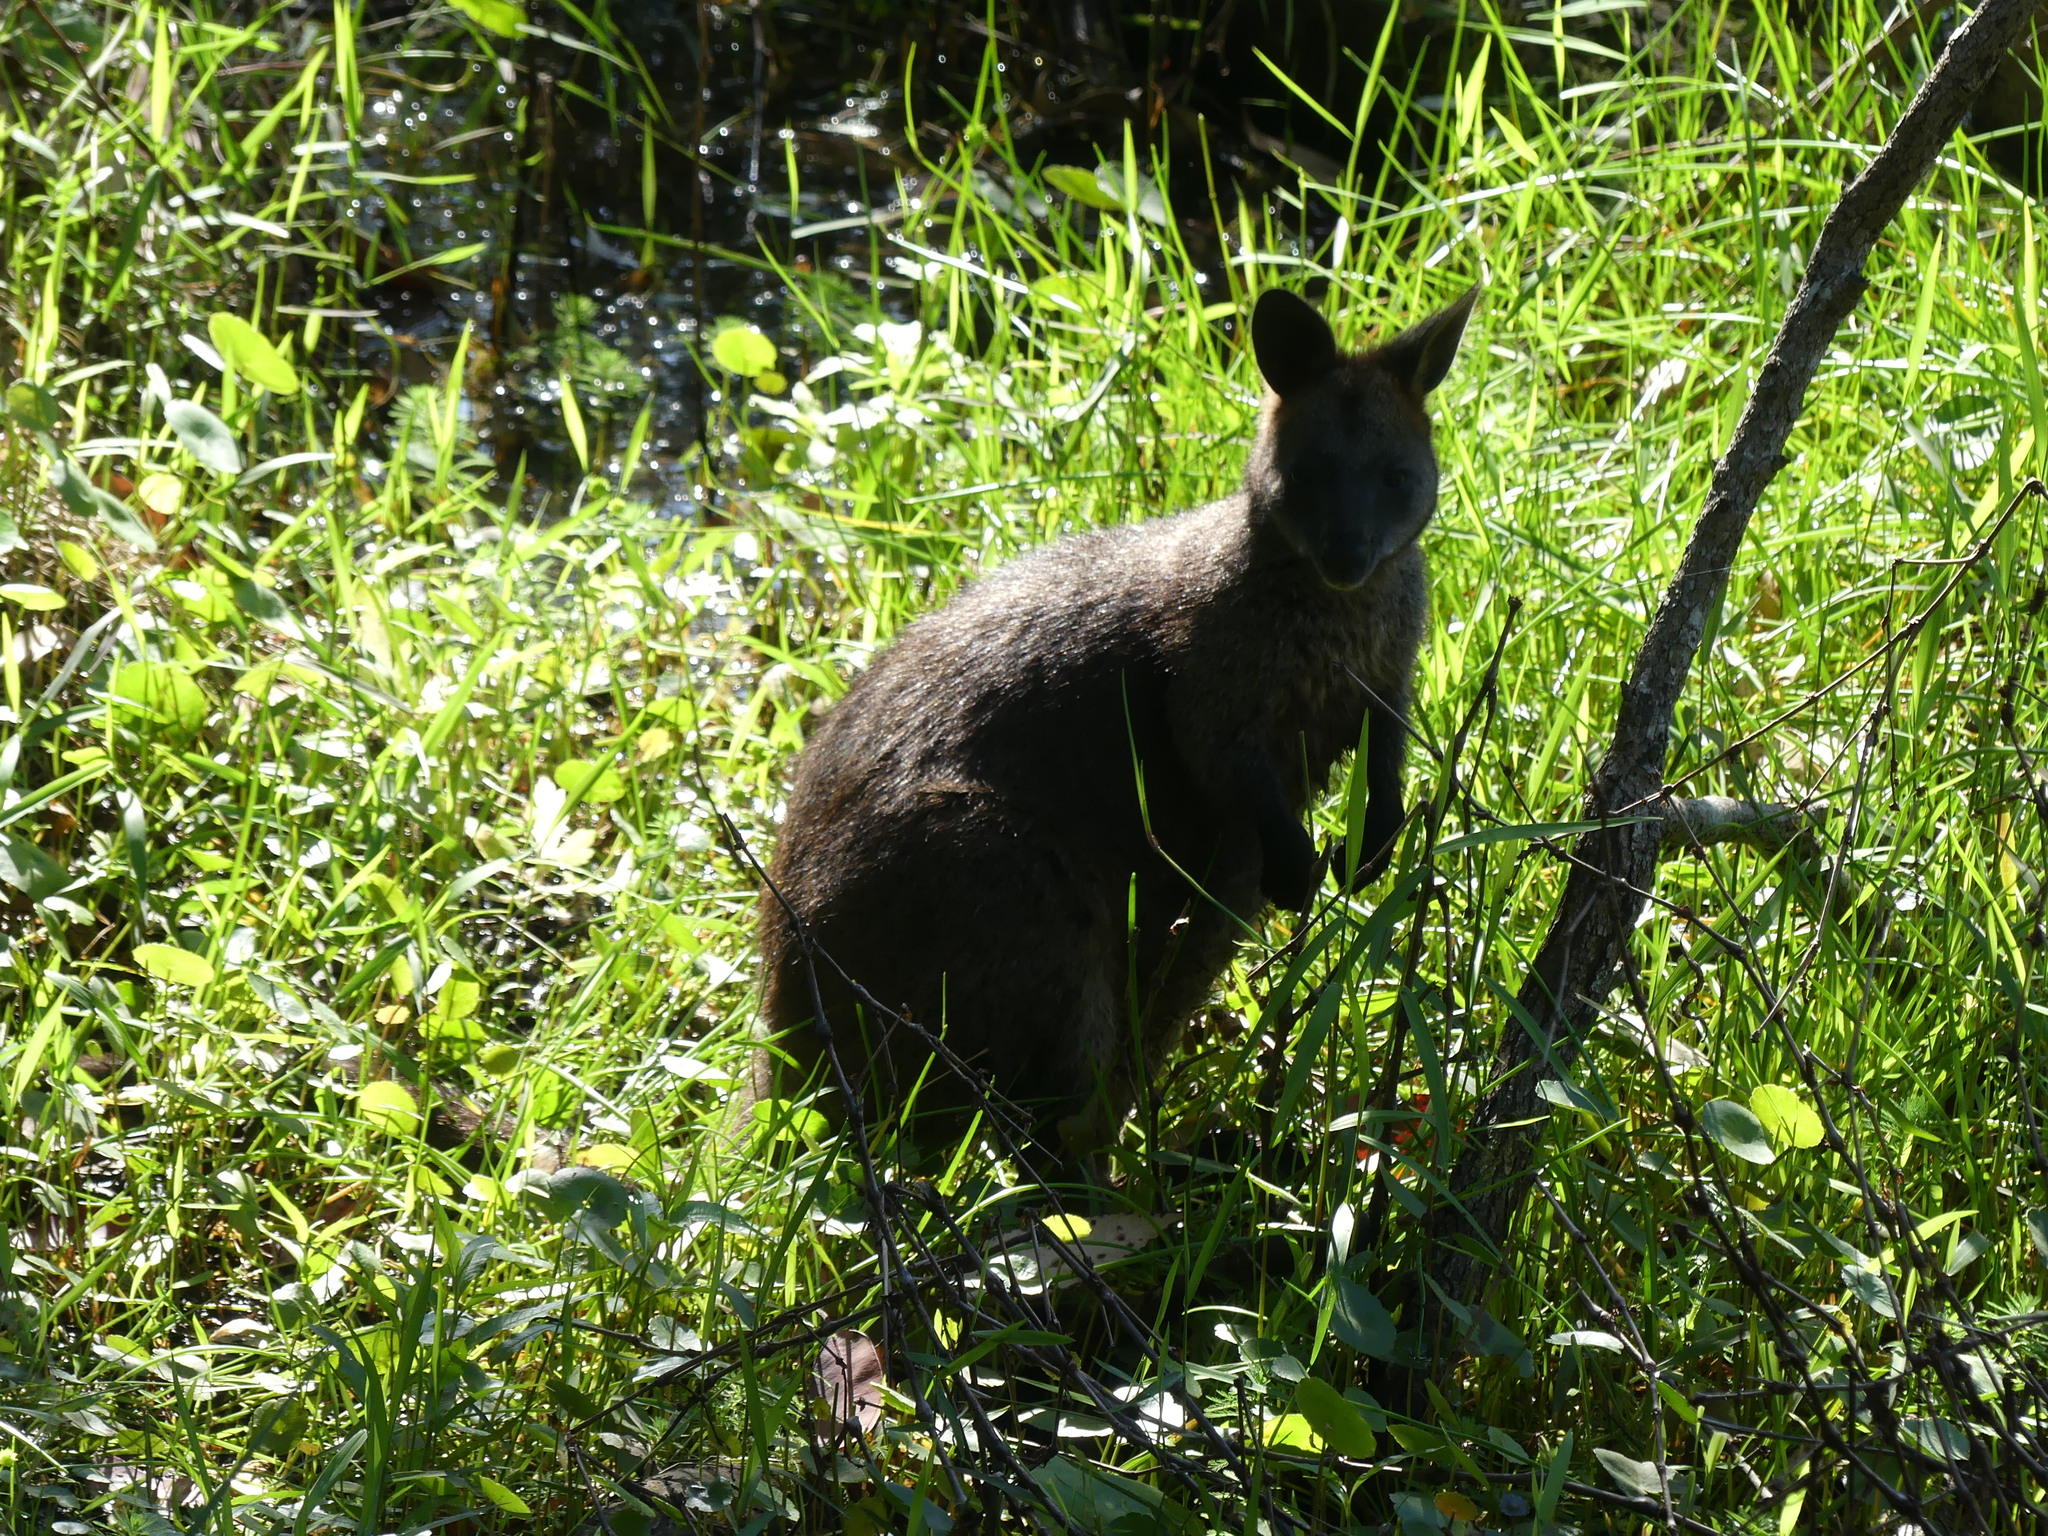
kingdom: Animalia
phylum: Chordata
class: Mammalia
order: Diprotodontia
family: Macropodidae
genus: Wallabia
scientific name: Wallabia bicolor
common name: Swamp wallaby
